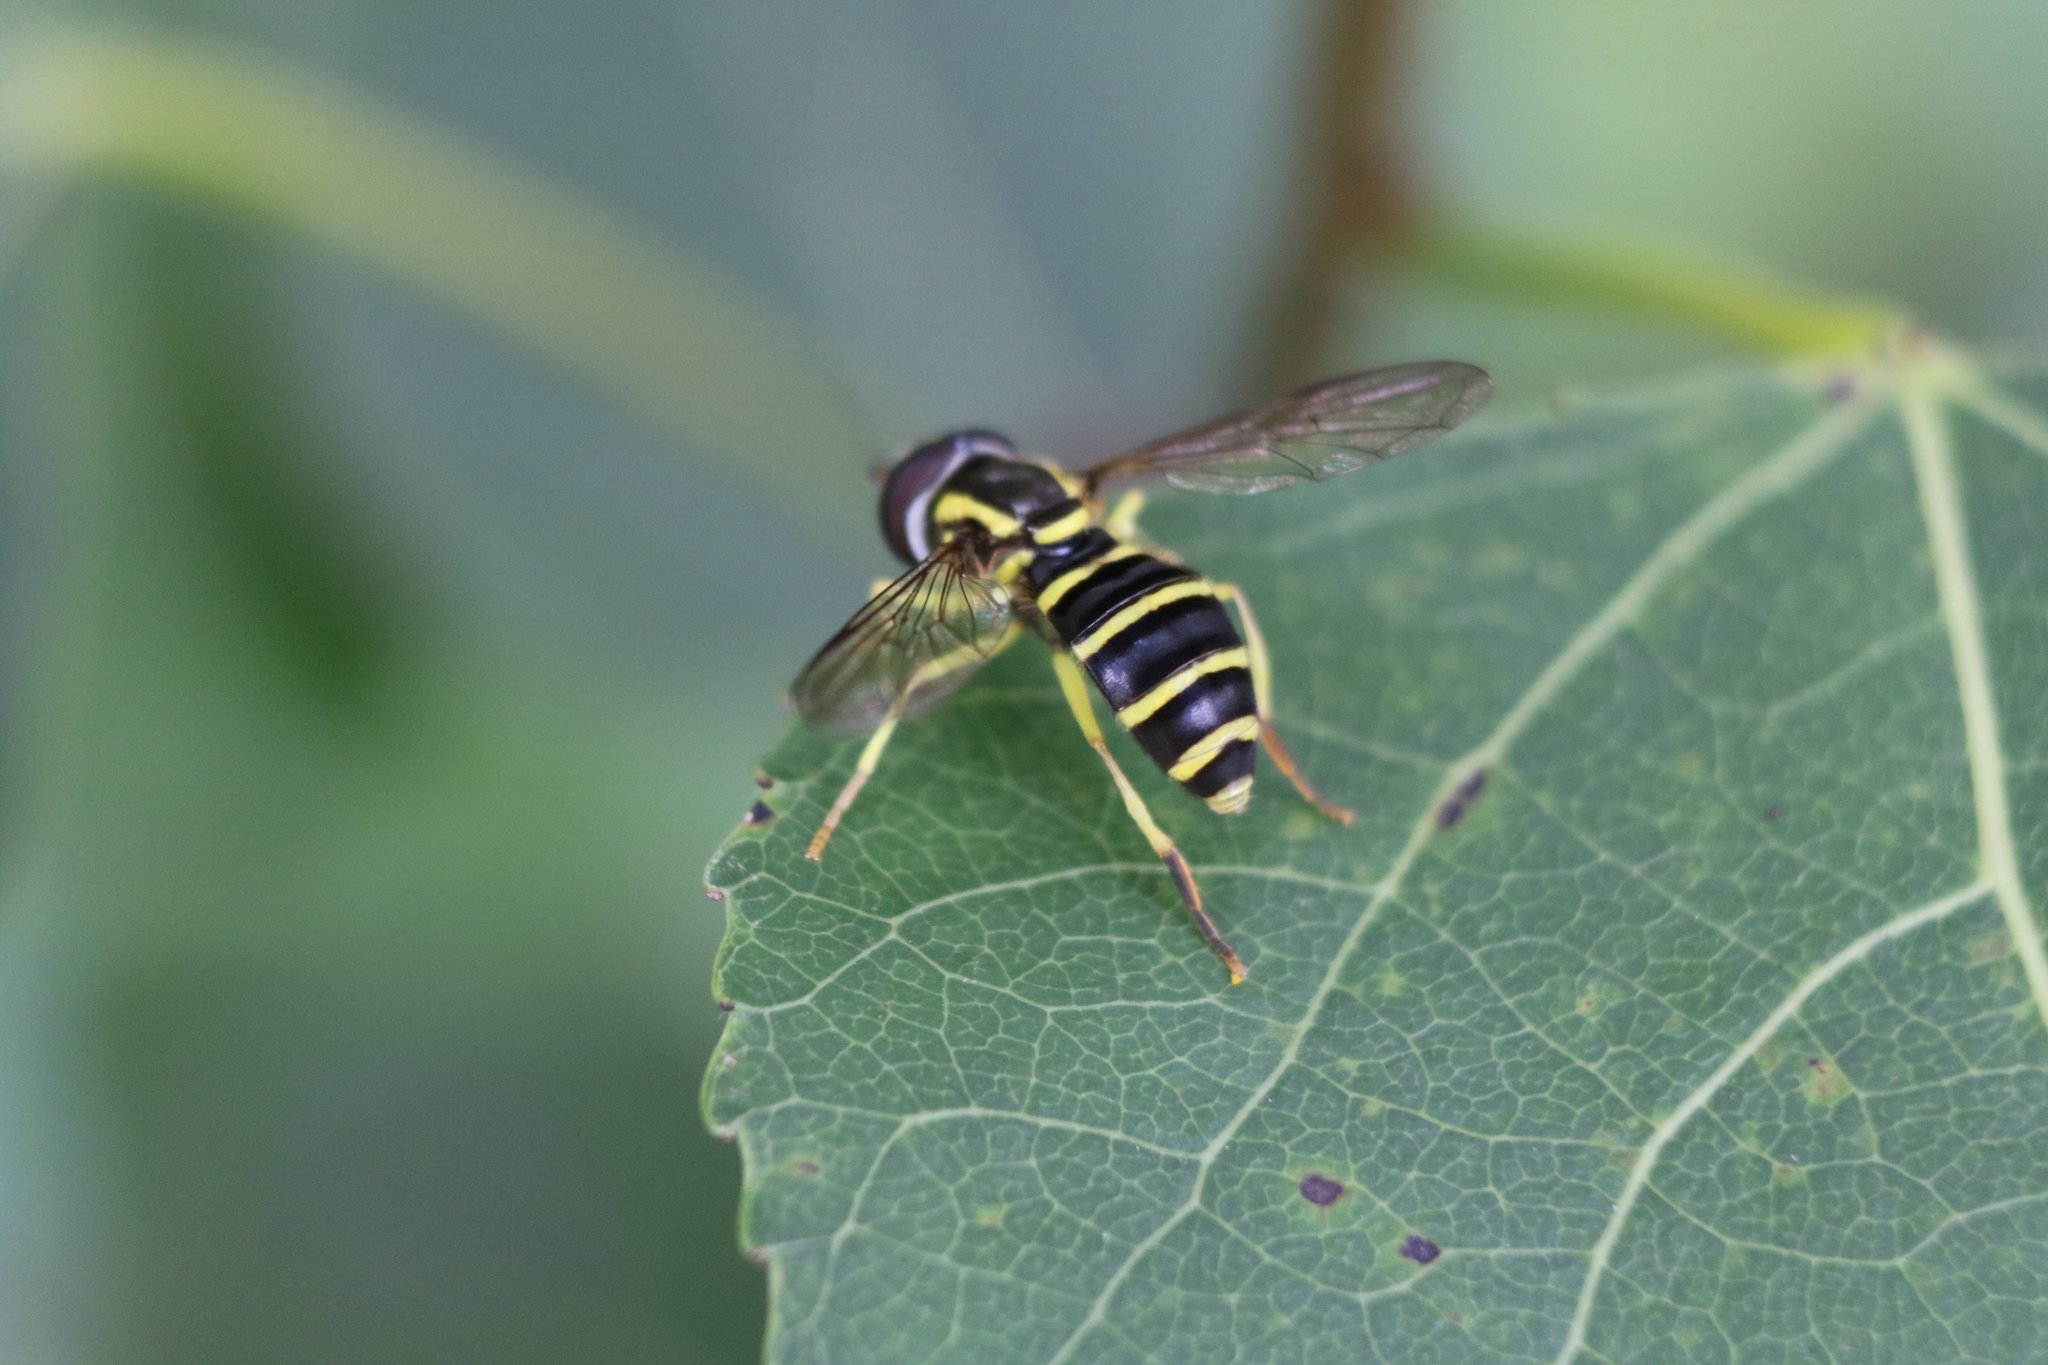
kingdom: Animalia
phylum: Arthropoda
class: Insecta
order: Diptera
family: Syrphidae
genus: Philhelius
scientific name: Philhelius flavipes
